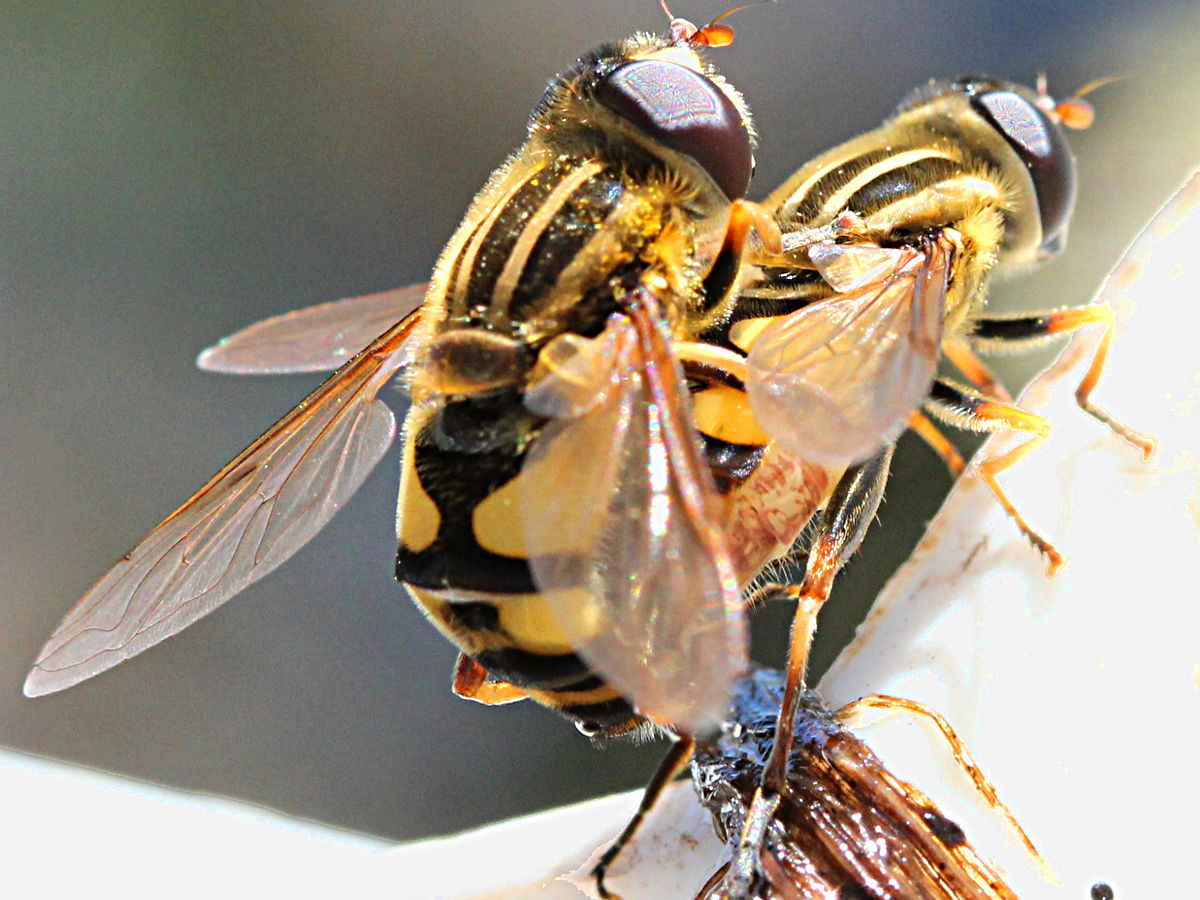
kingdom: Animalia
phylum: Arthropoda
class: Insecta
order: Diptera
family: Syrphidae
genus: Helophilus
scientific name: Helophilus fasciatus
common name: Narrow-headed marsh fly
